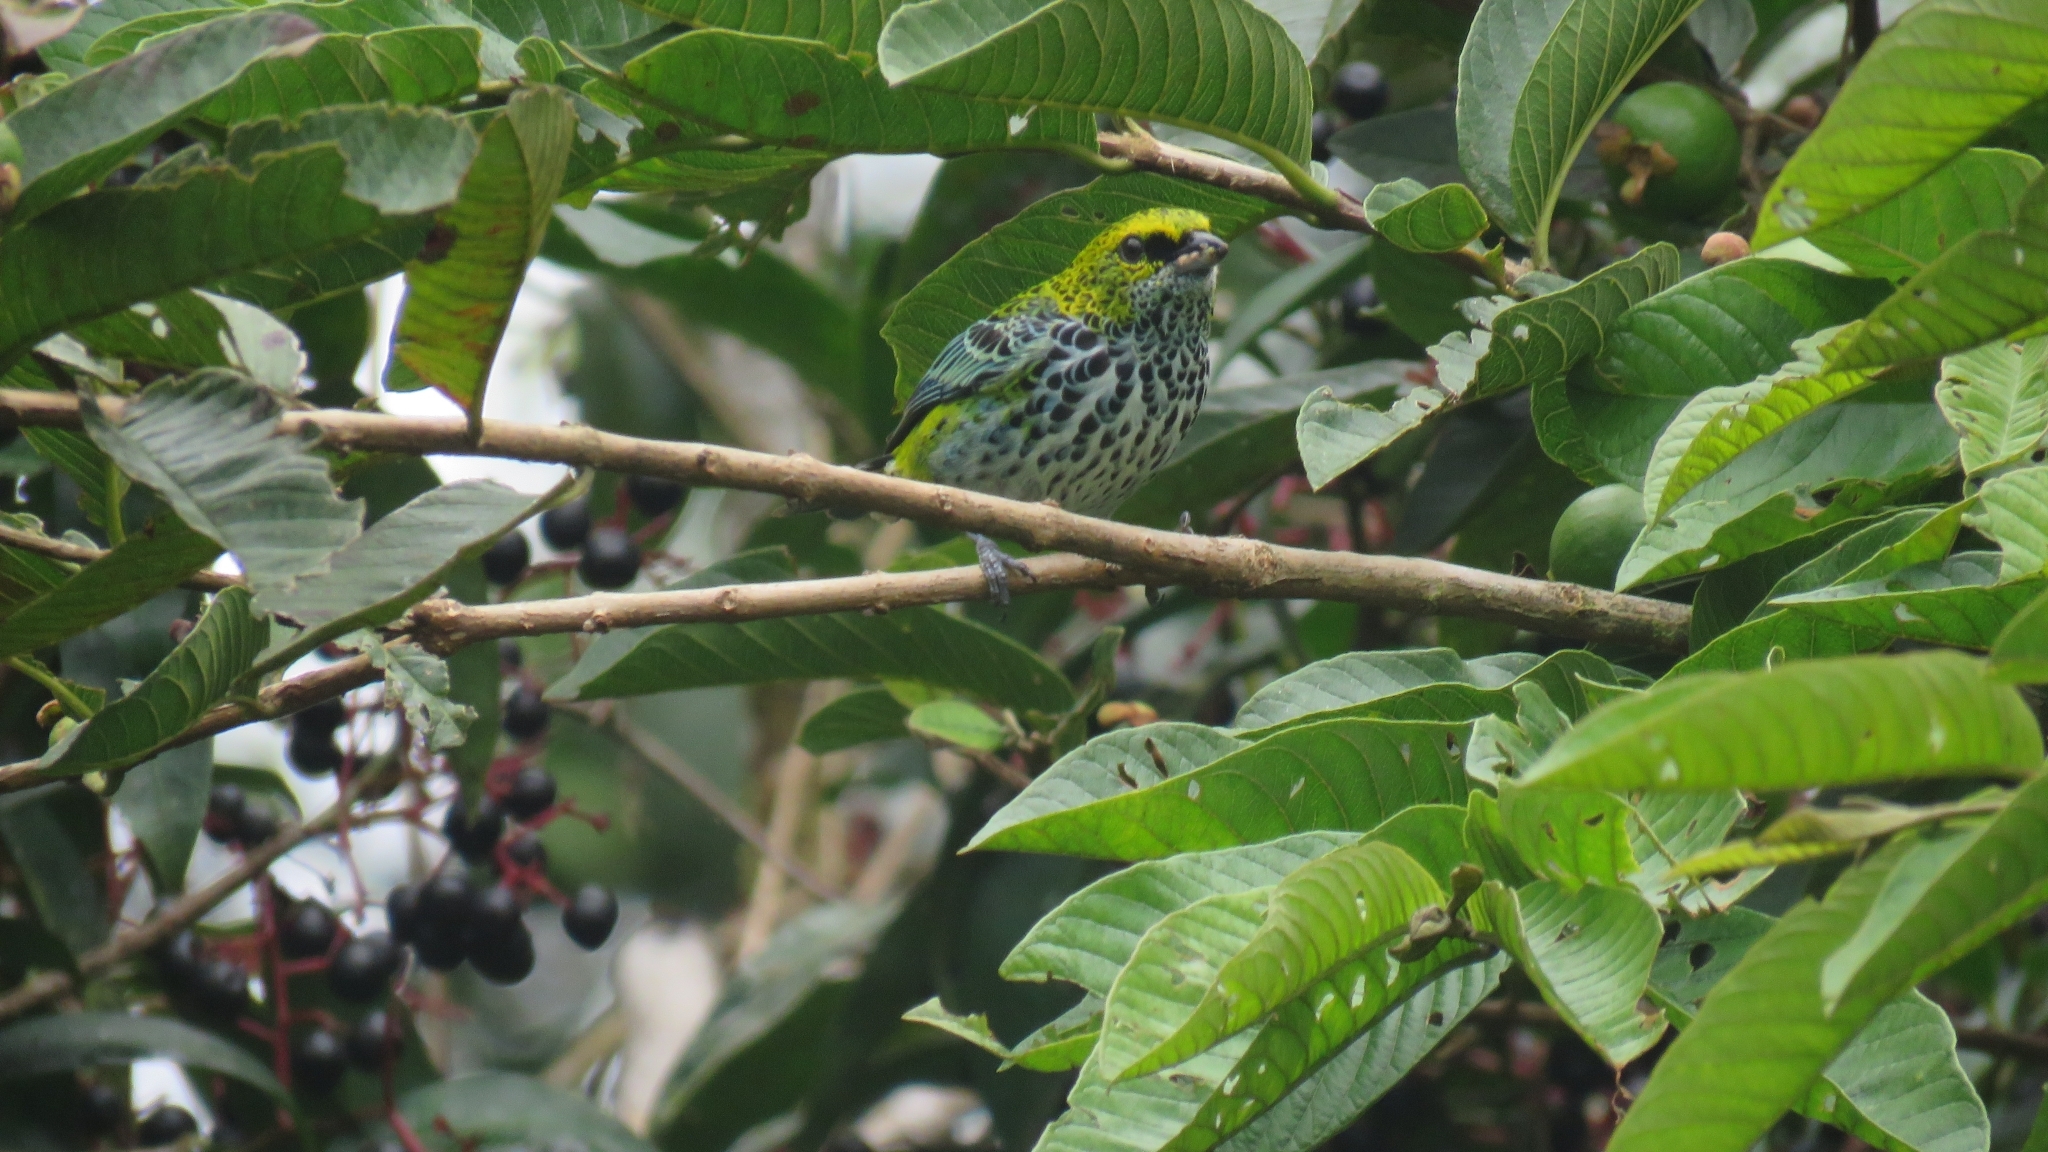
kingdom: Animalia
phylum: Chordata
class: Aves
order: Passeriformes
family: Thraupidae
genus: Ixothraupis
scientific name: Ixothraupis guttata
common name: Speckled tanager
